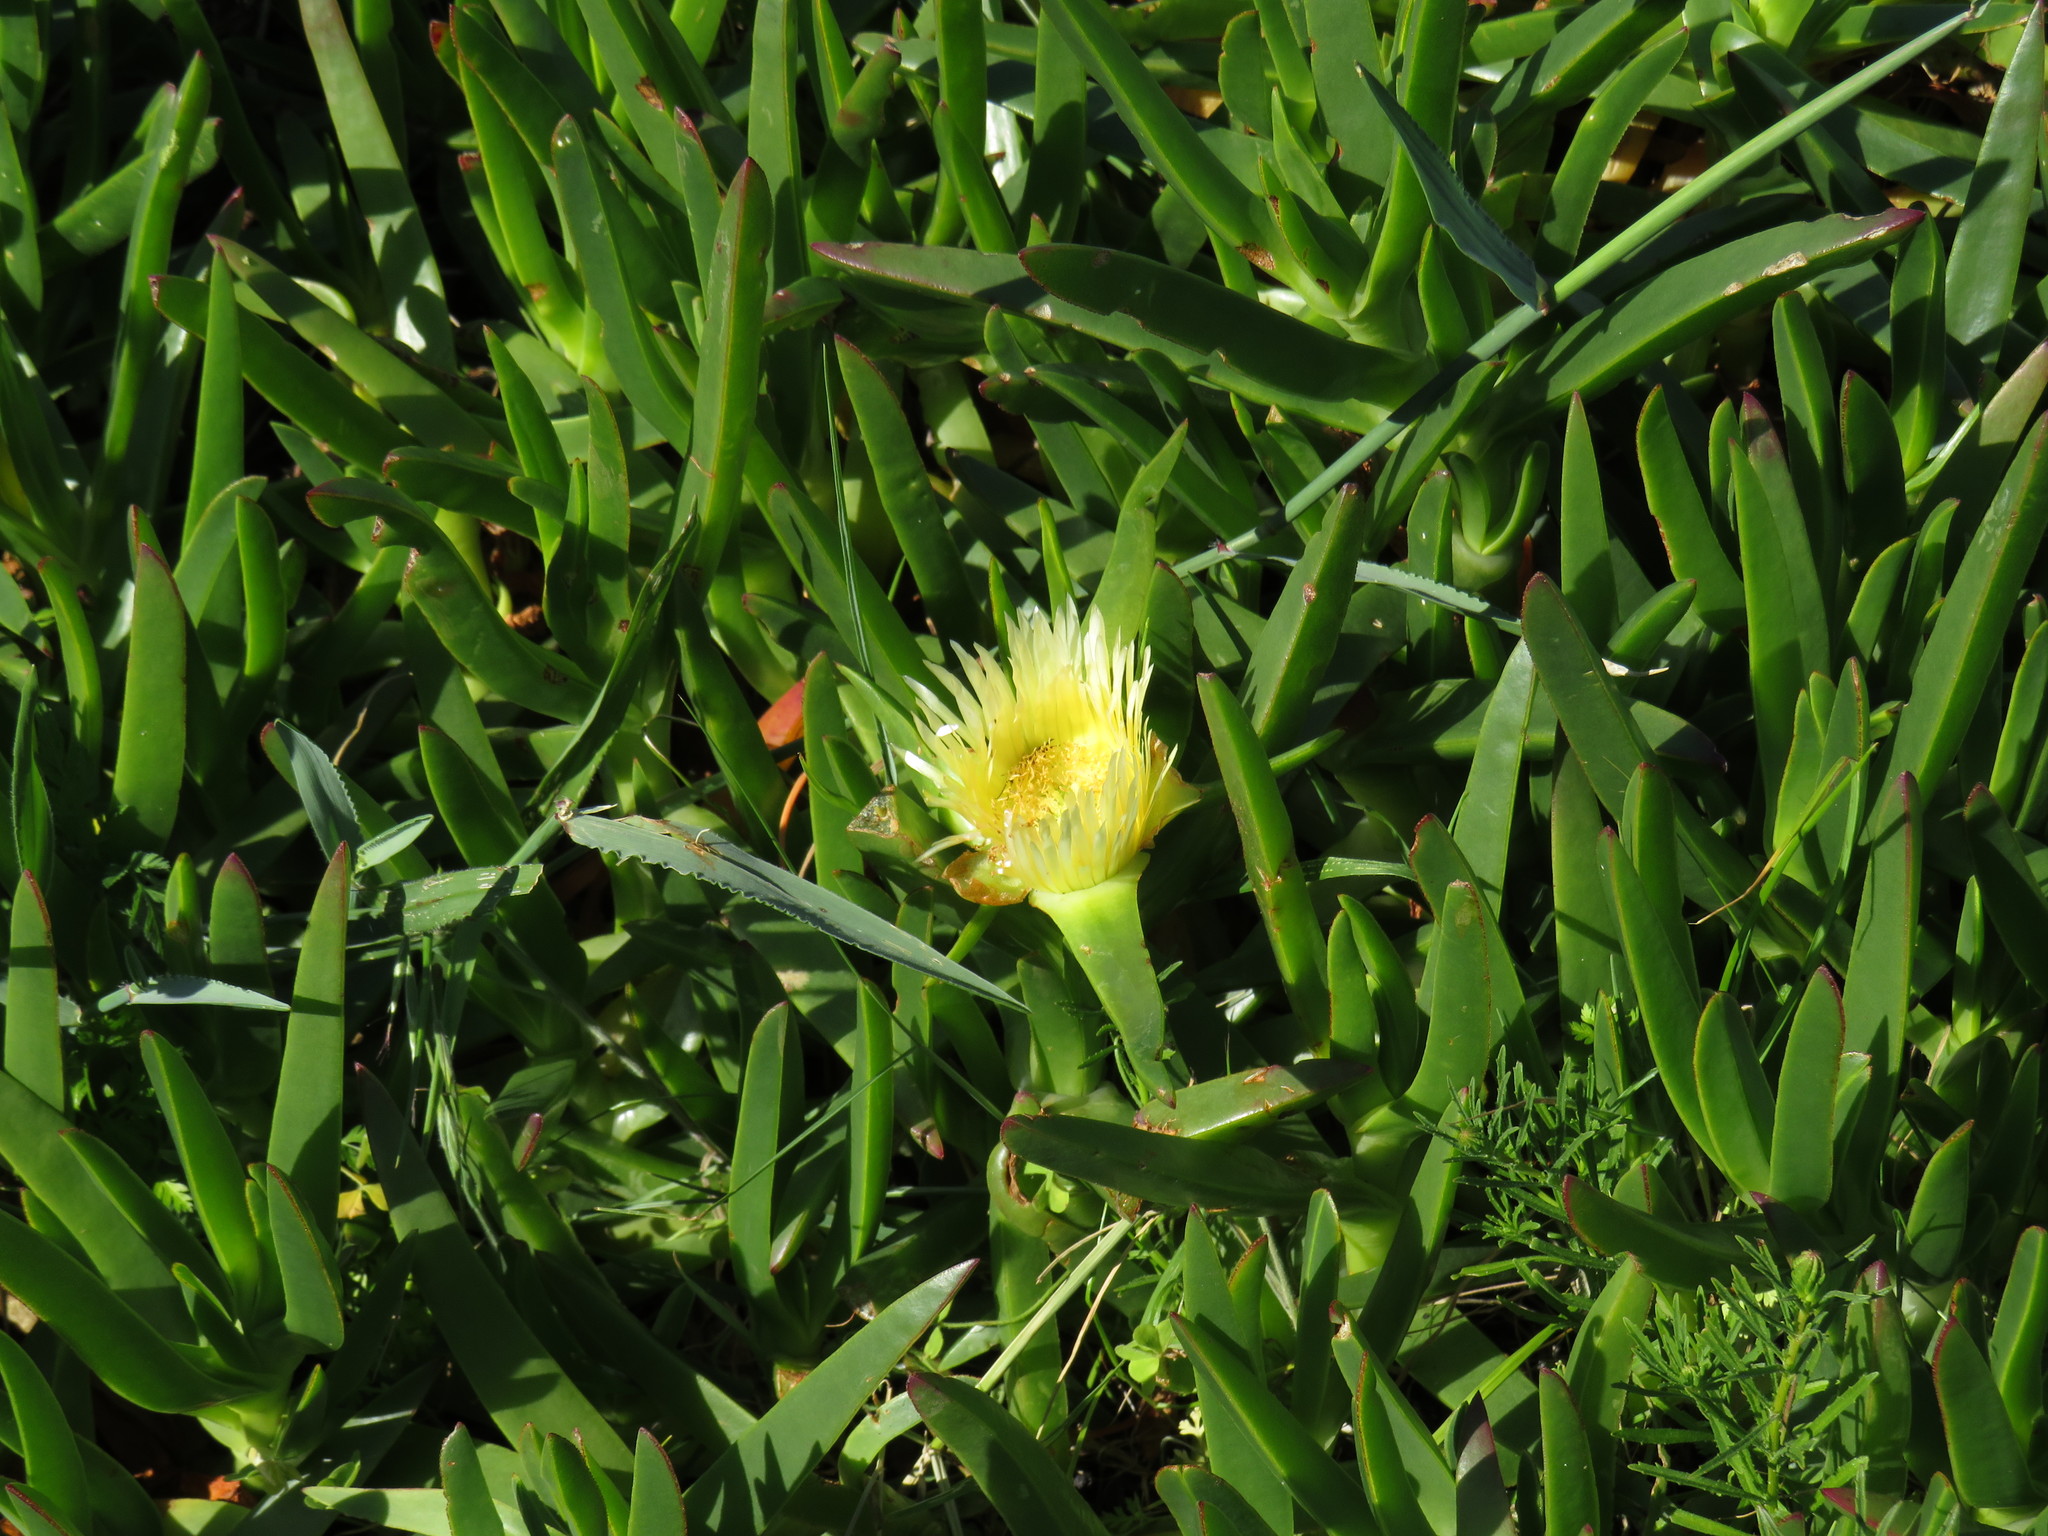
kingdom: Plantae
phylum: Tracheophyta
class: Magnoliopsida
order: Caryophyllales
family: Aizoaceae
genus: Carpobrotus
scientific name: Carpobrotus edulis
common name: Hottentot-fig
